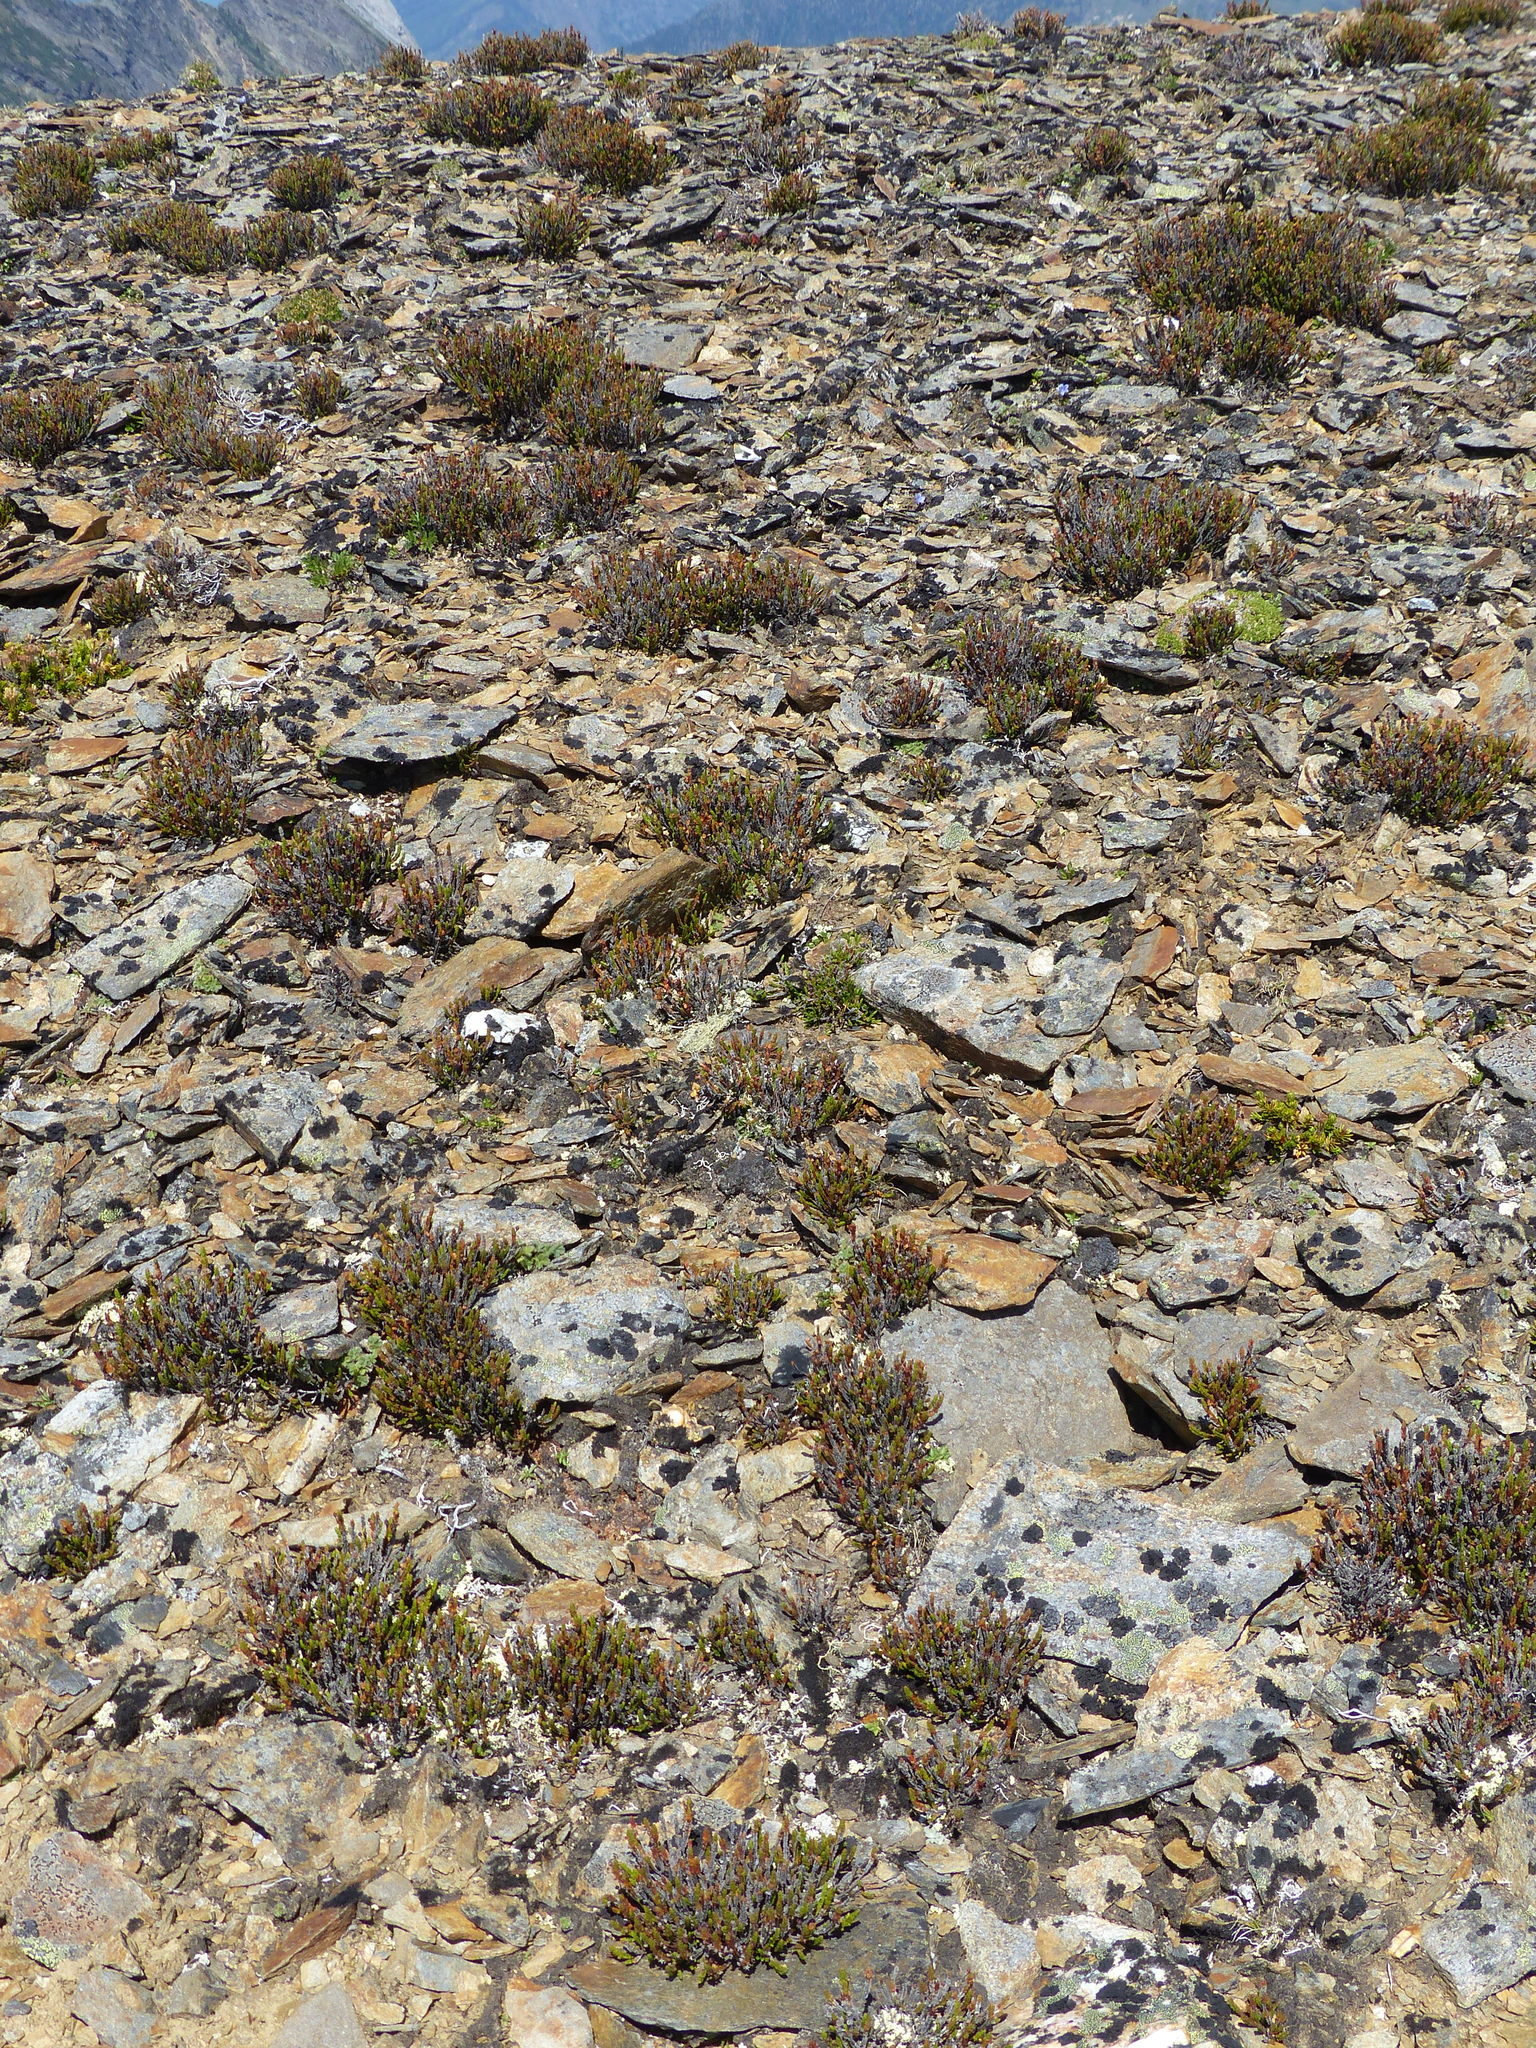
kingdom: Plantae
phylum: Tracheophyta
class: Magnoliopsida
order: Ericales
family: Ericaceae
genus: Cassiope
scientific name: Cassiope tetragona
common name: Arctic bell heather
